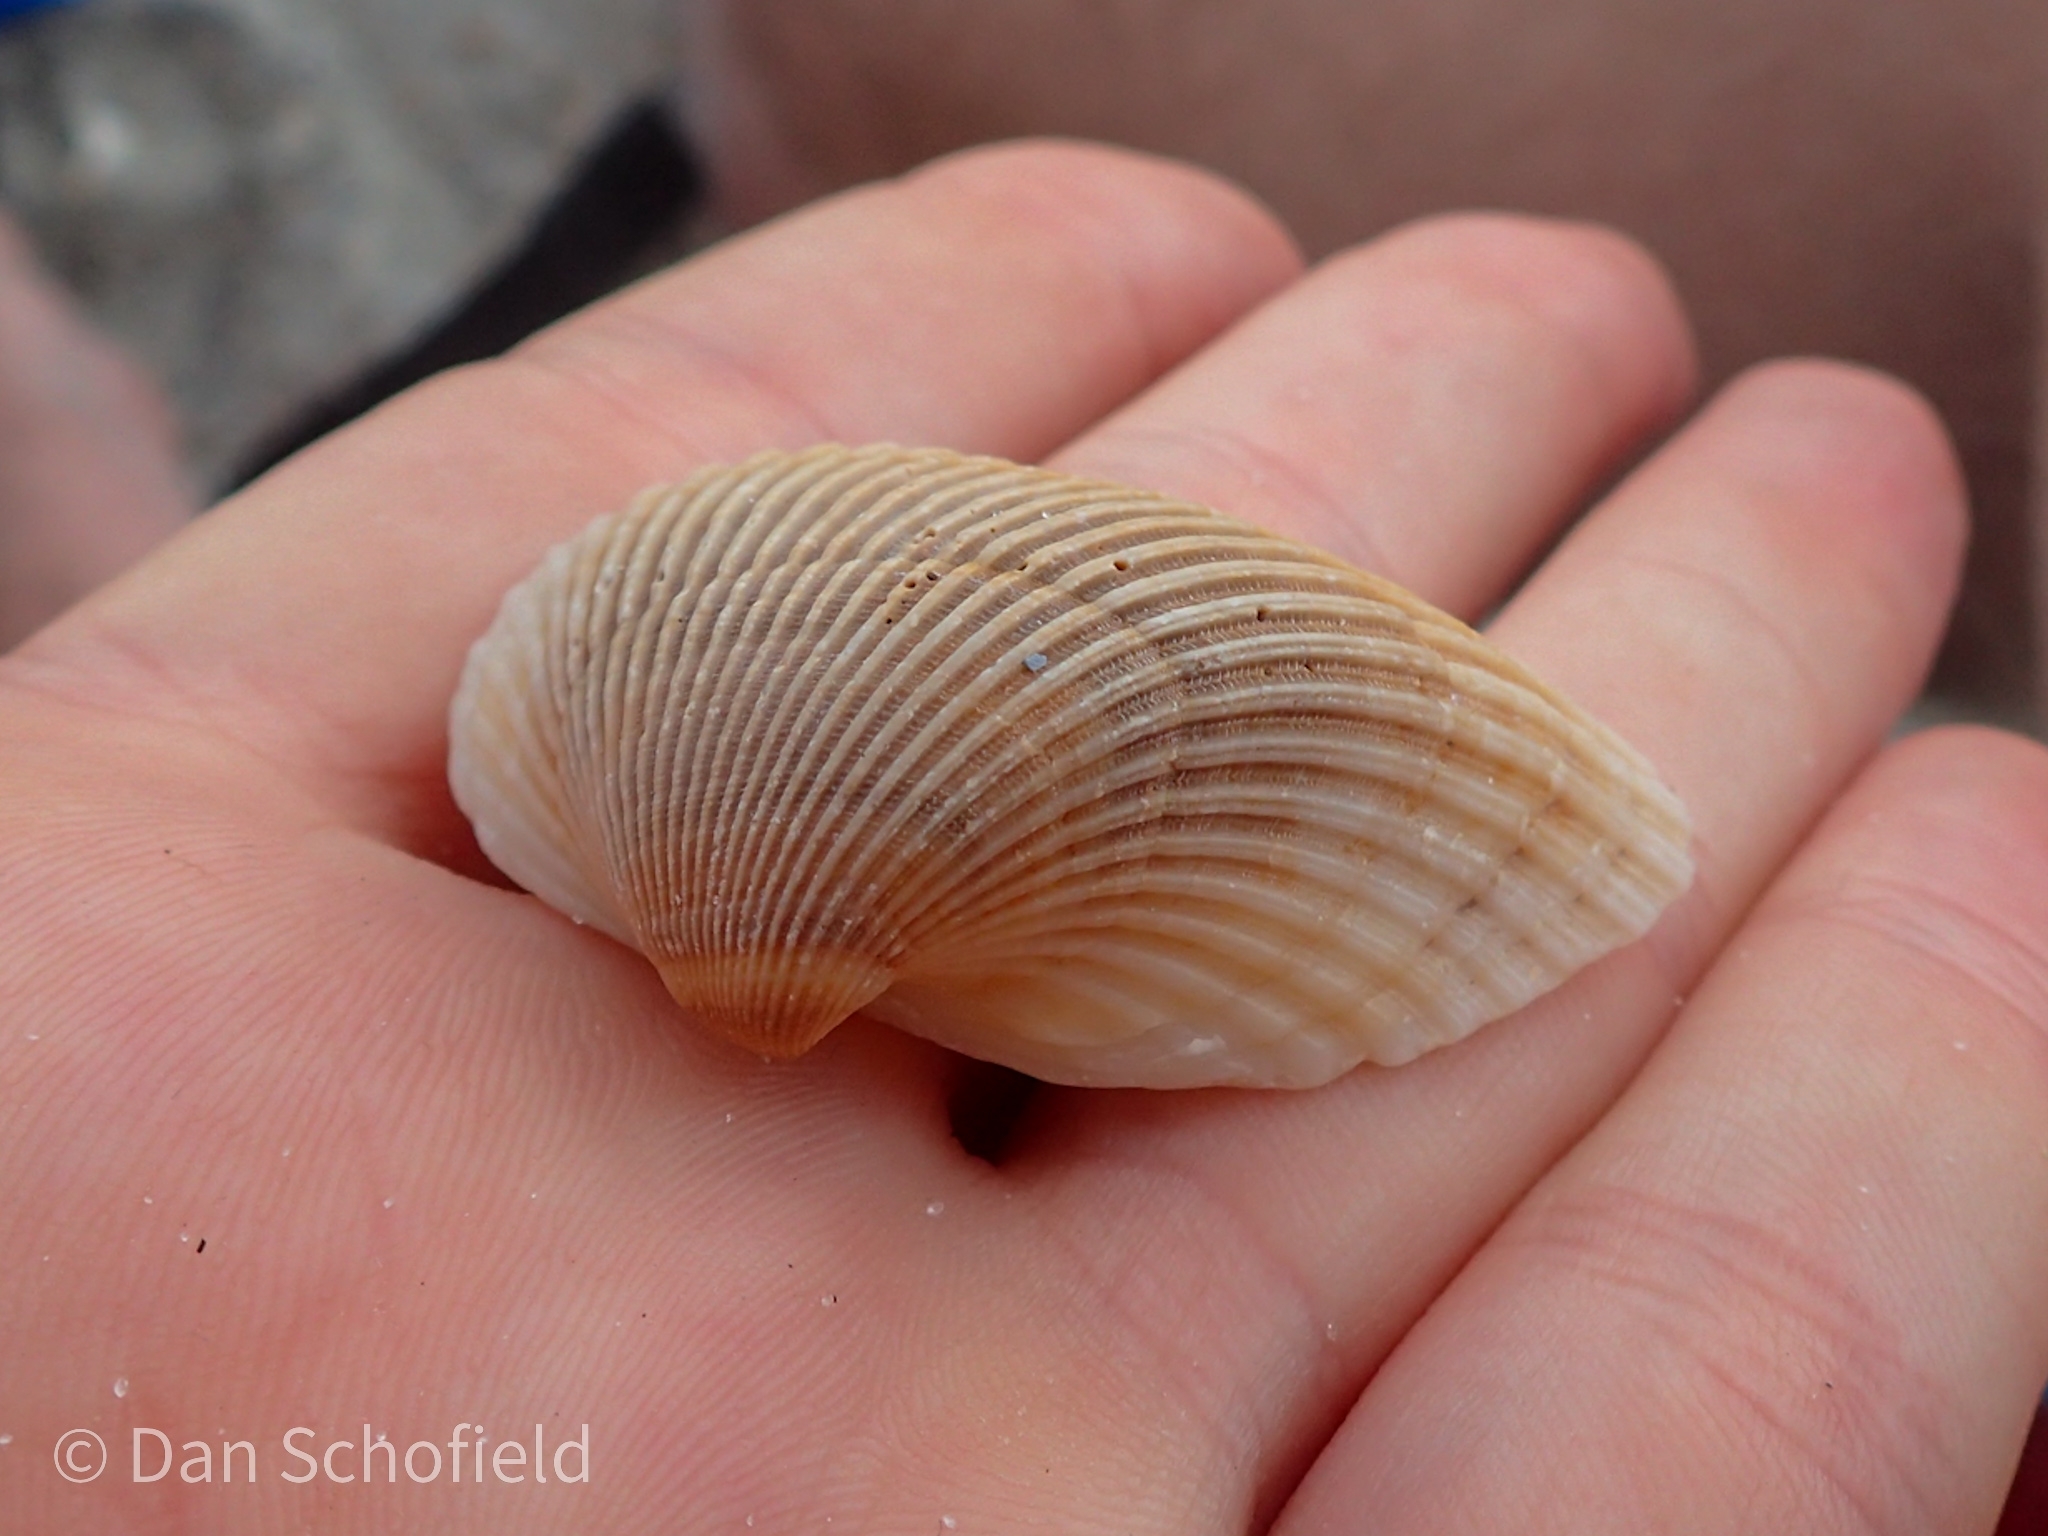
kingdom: Animalia
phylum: Mollusca
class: Bivalvia
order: Arcida
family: Noetiidae
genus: Noetia
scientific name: Noetia ponderosa
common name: Ponderous ark
